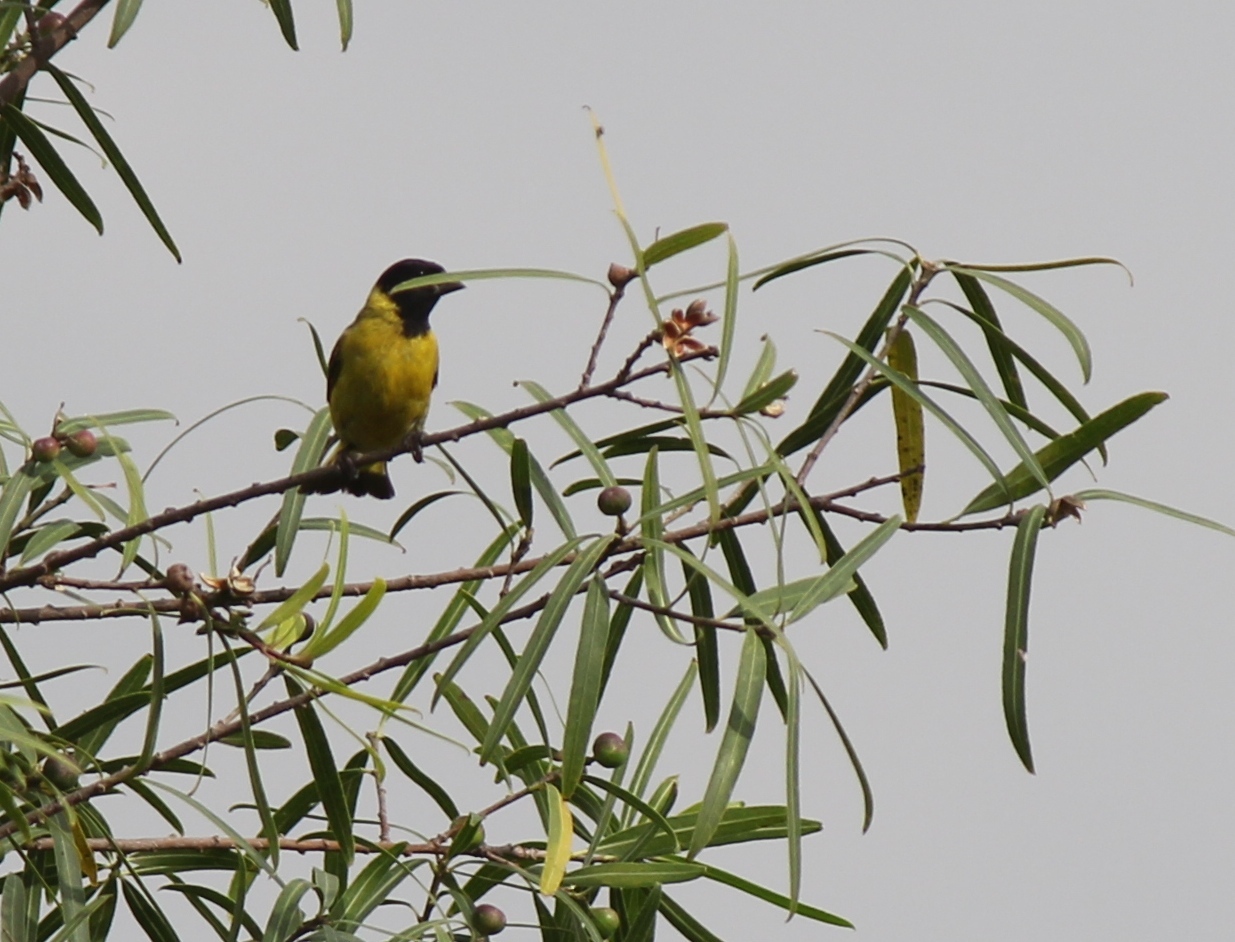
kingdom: Animalia
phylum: Chordata
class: Aves
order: Passeriformes
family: Fringillidae
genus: Spinus
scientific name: Spinus magellanicus
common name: Hooded siskin
